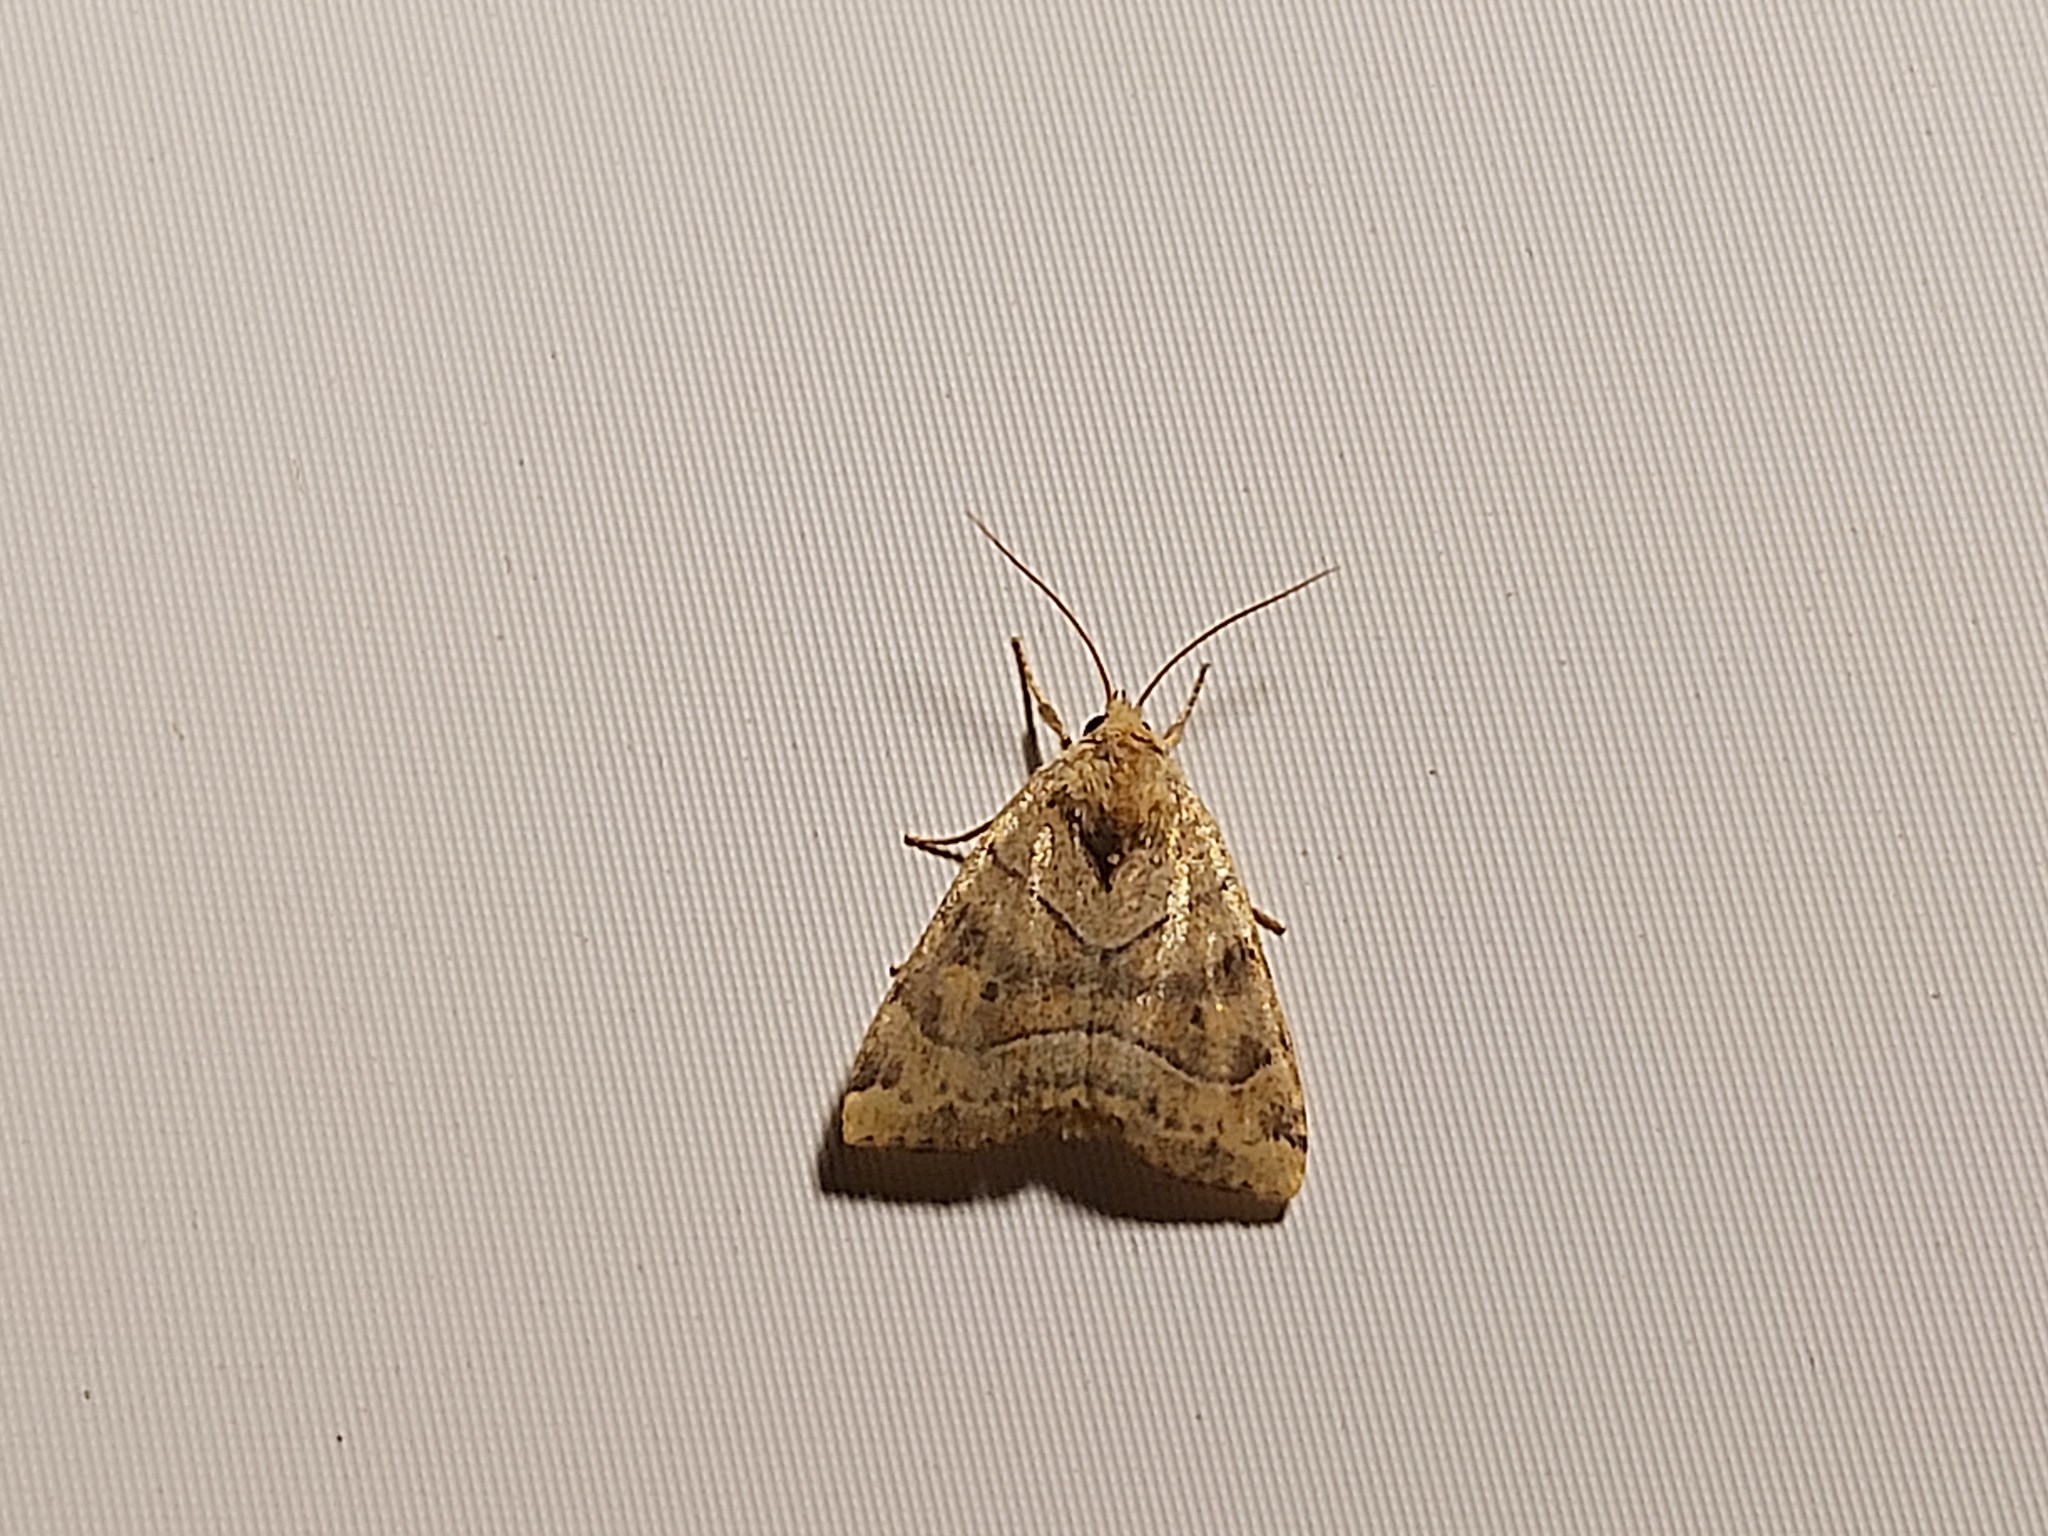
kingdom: Animalia
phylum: Arthropoda
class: Insecta
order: Lepidoptera
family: Noctuidae
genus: Cosmia
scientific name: Cosmia trapezina
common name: Dun-bar
